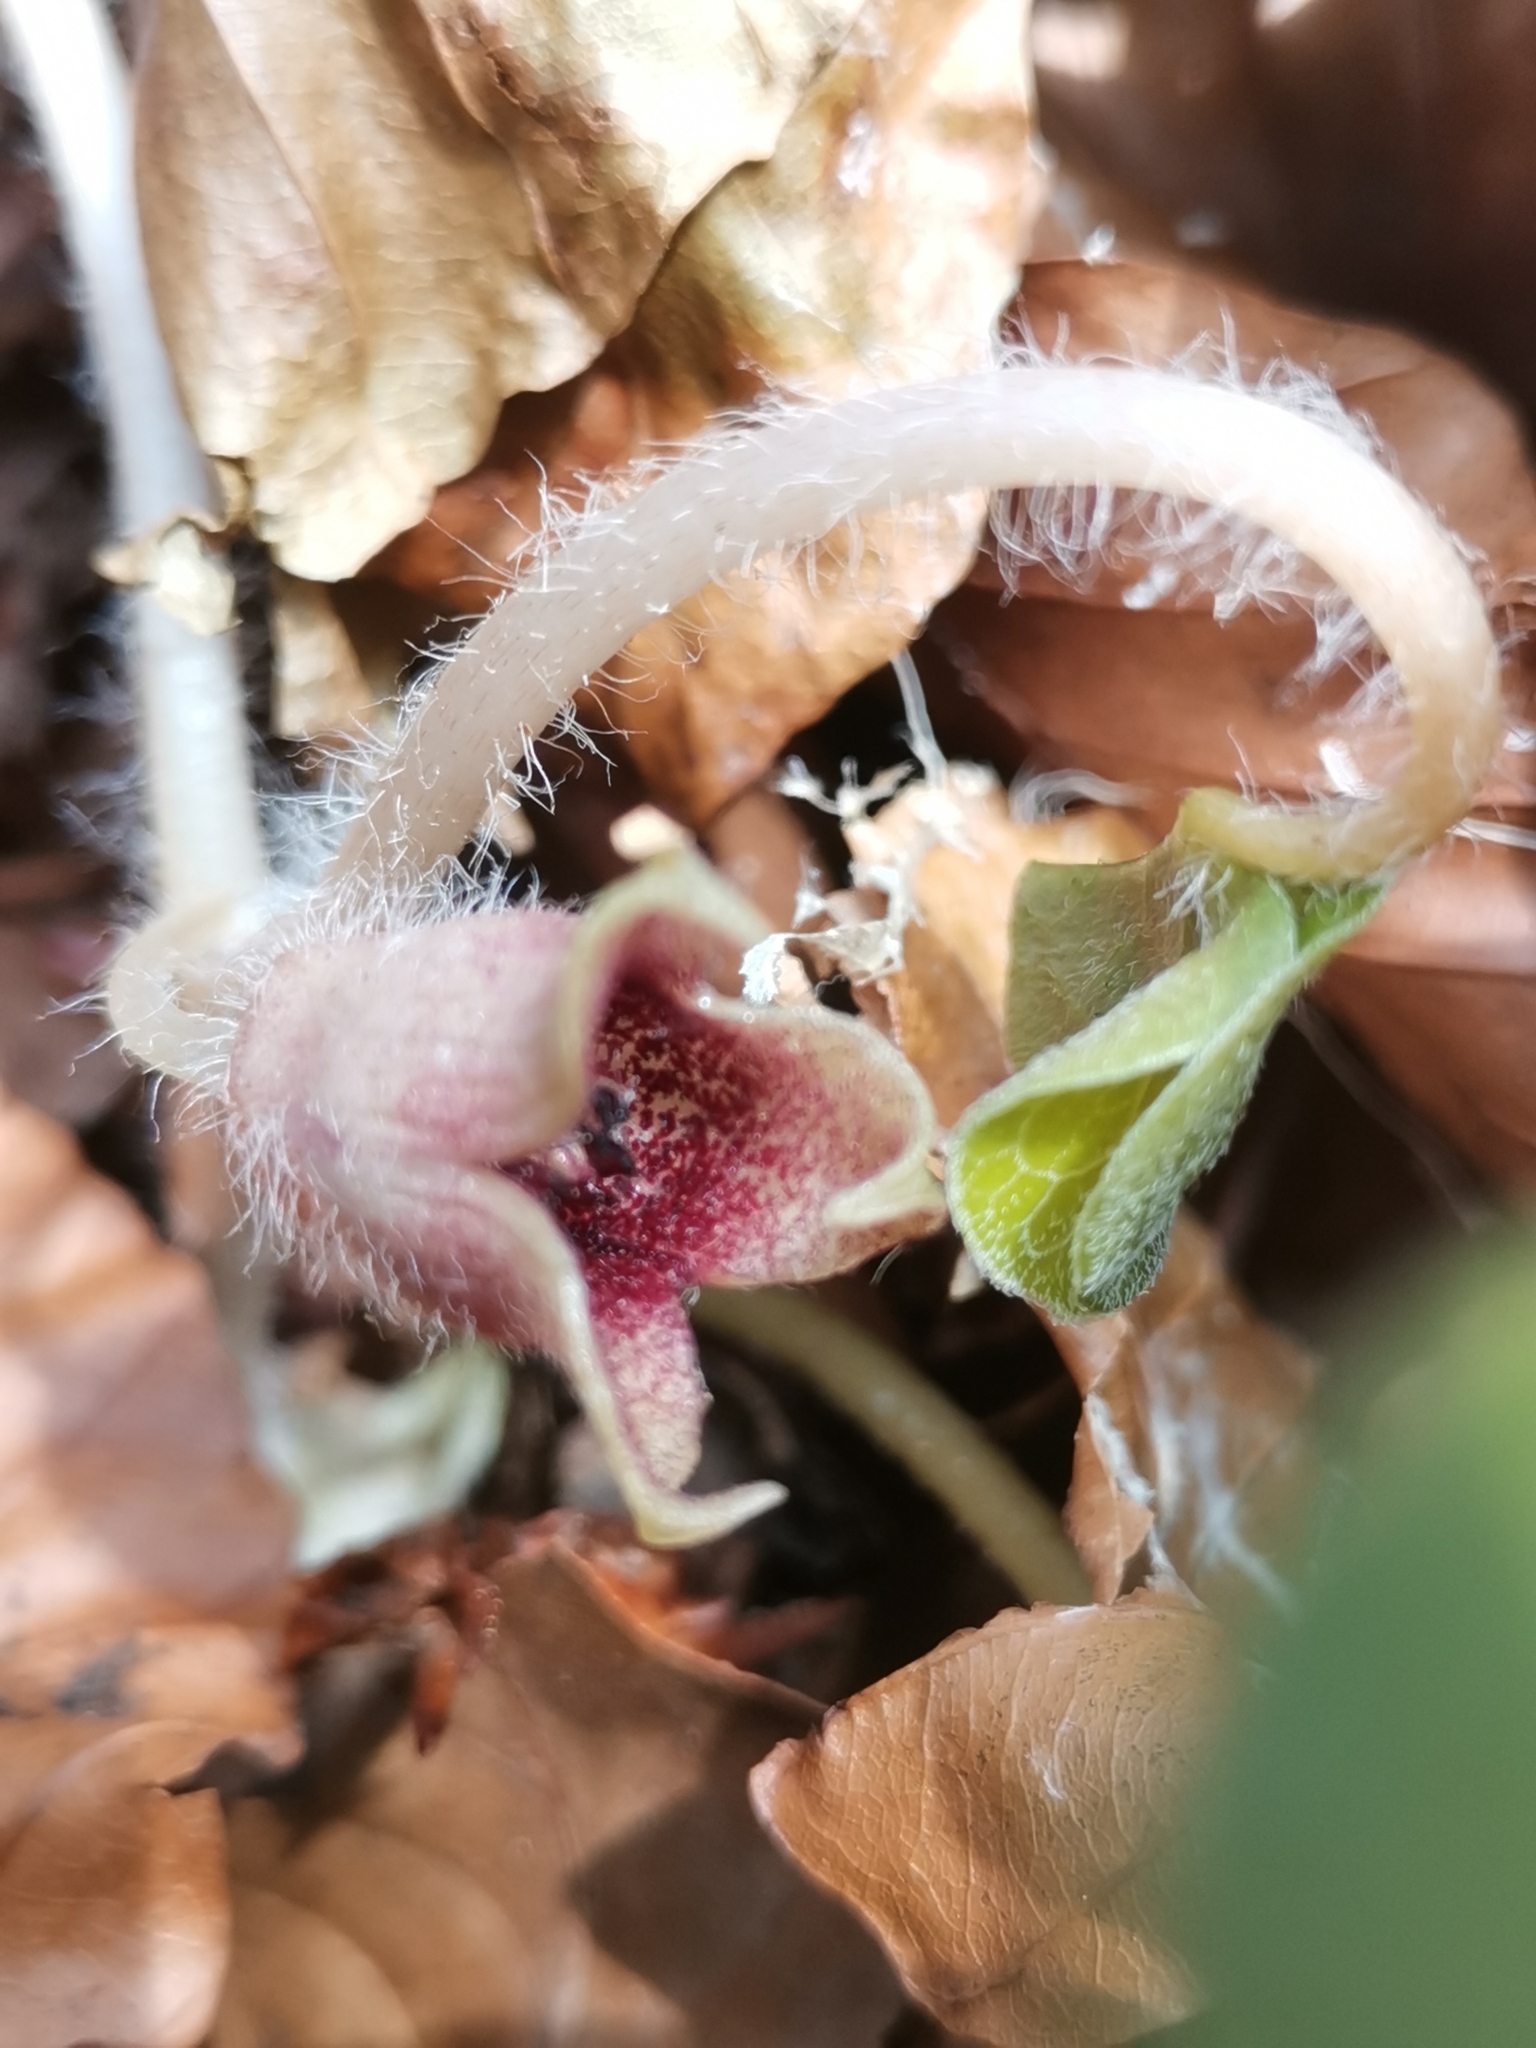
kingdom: Plantae
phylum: Tracheophyta
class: Magnoliopsida
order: Piperales
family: Aristolochiaceae
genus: Asarum
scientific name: Asarum europaeum
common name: Asarabacca
